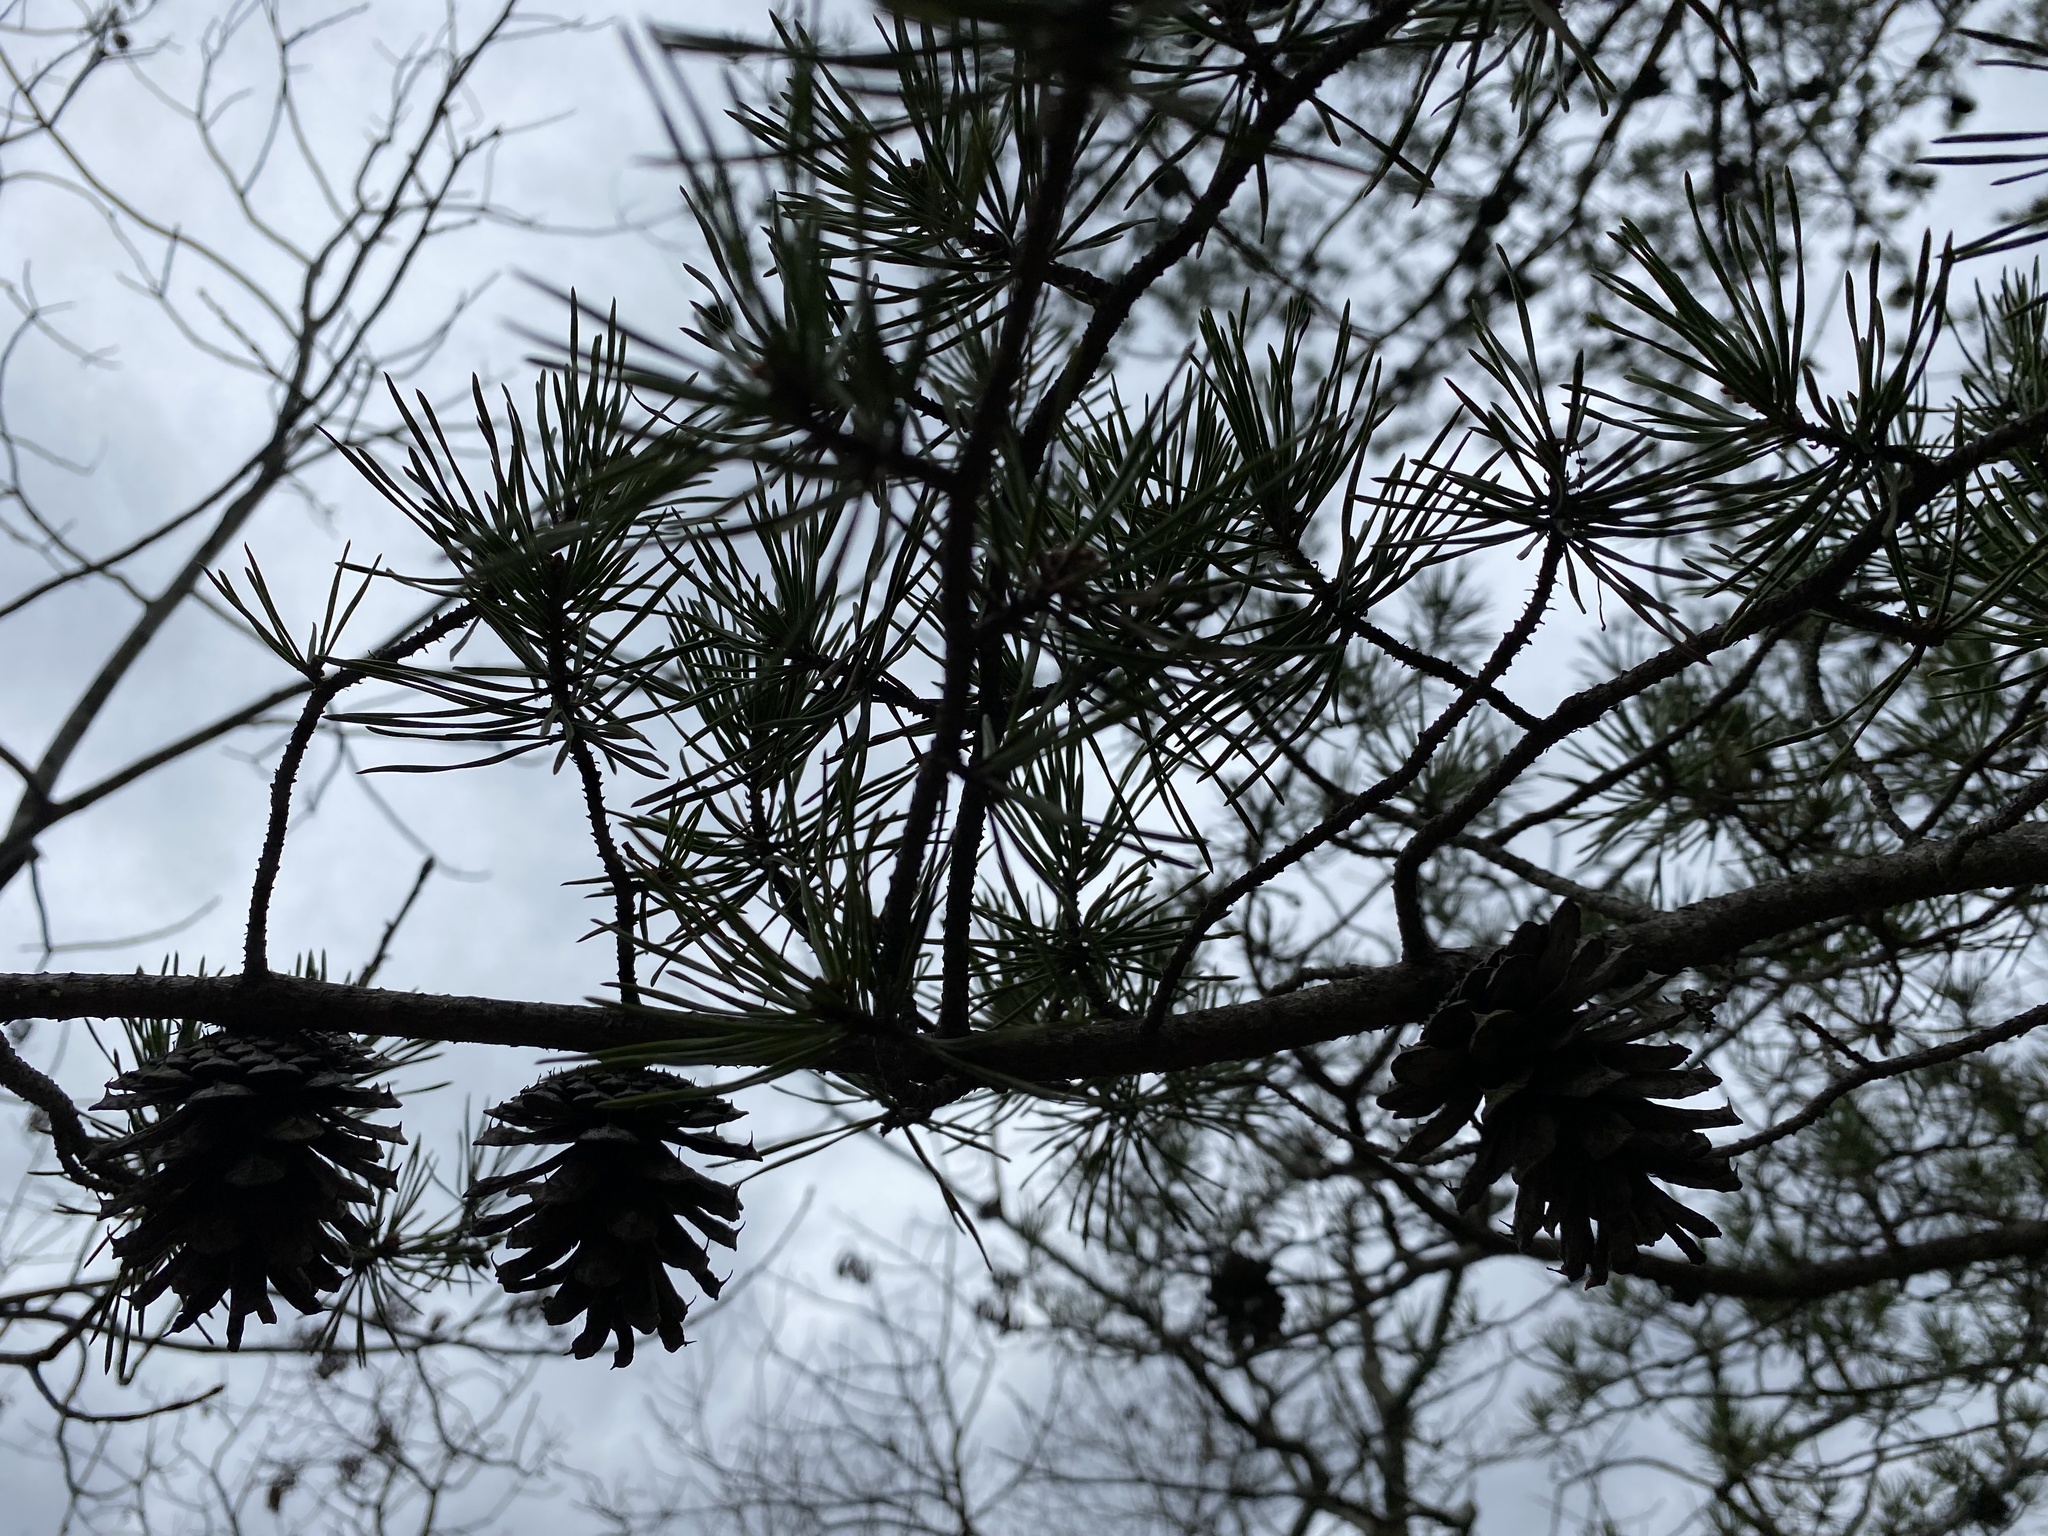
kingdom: Plantae
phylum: Tracheophyta
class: Pinopsida
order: Pinales
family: Pinaceae
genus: Pinus
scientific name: Pinus virginiana
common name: Scrub pine
